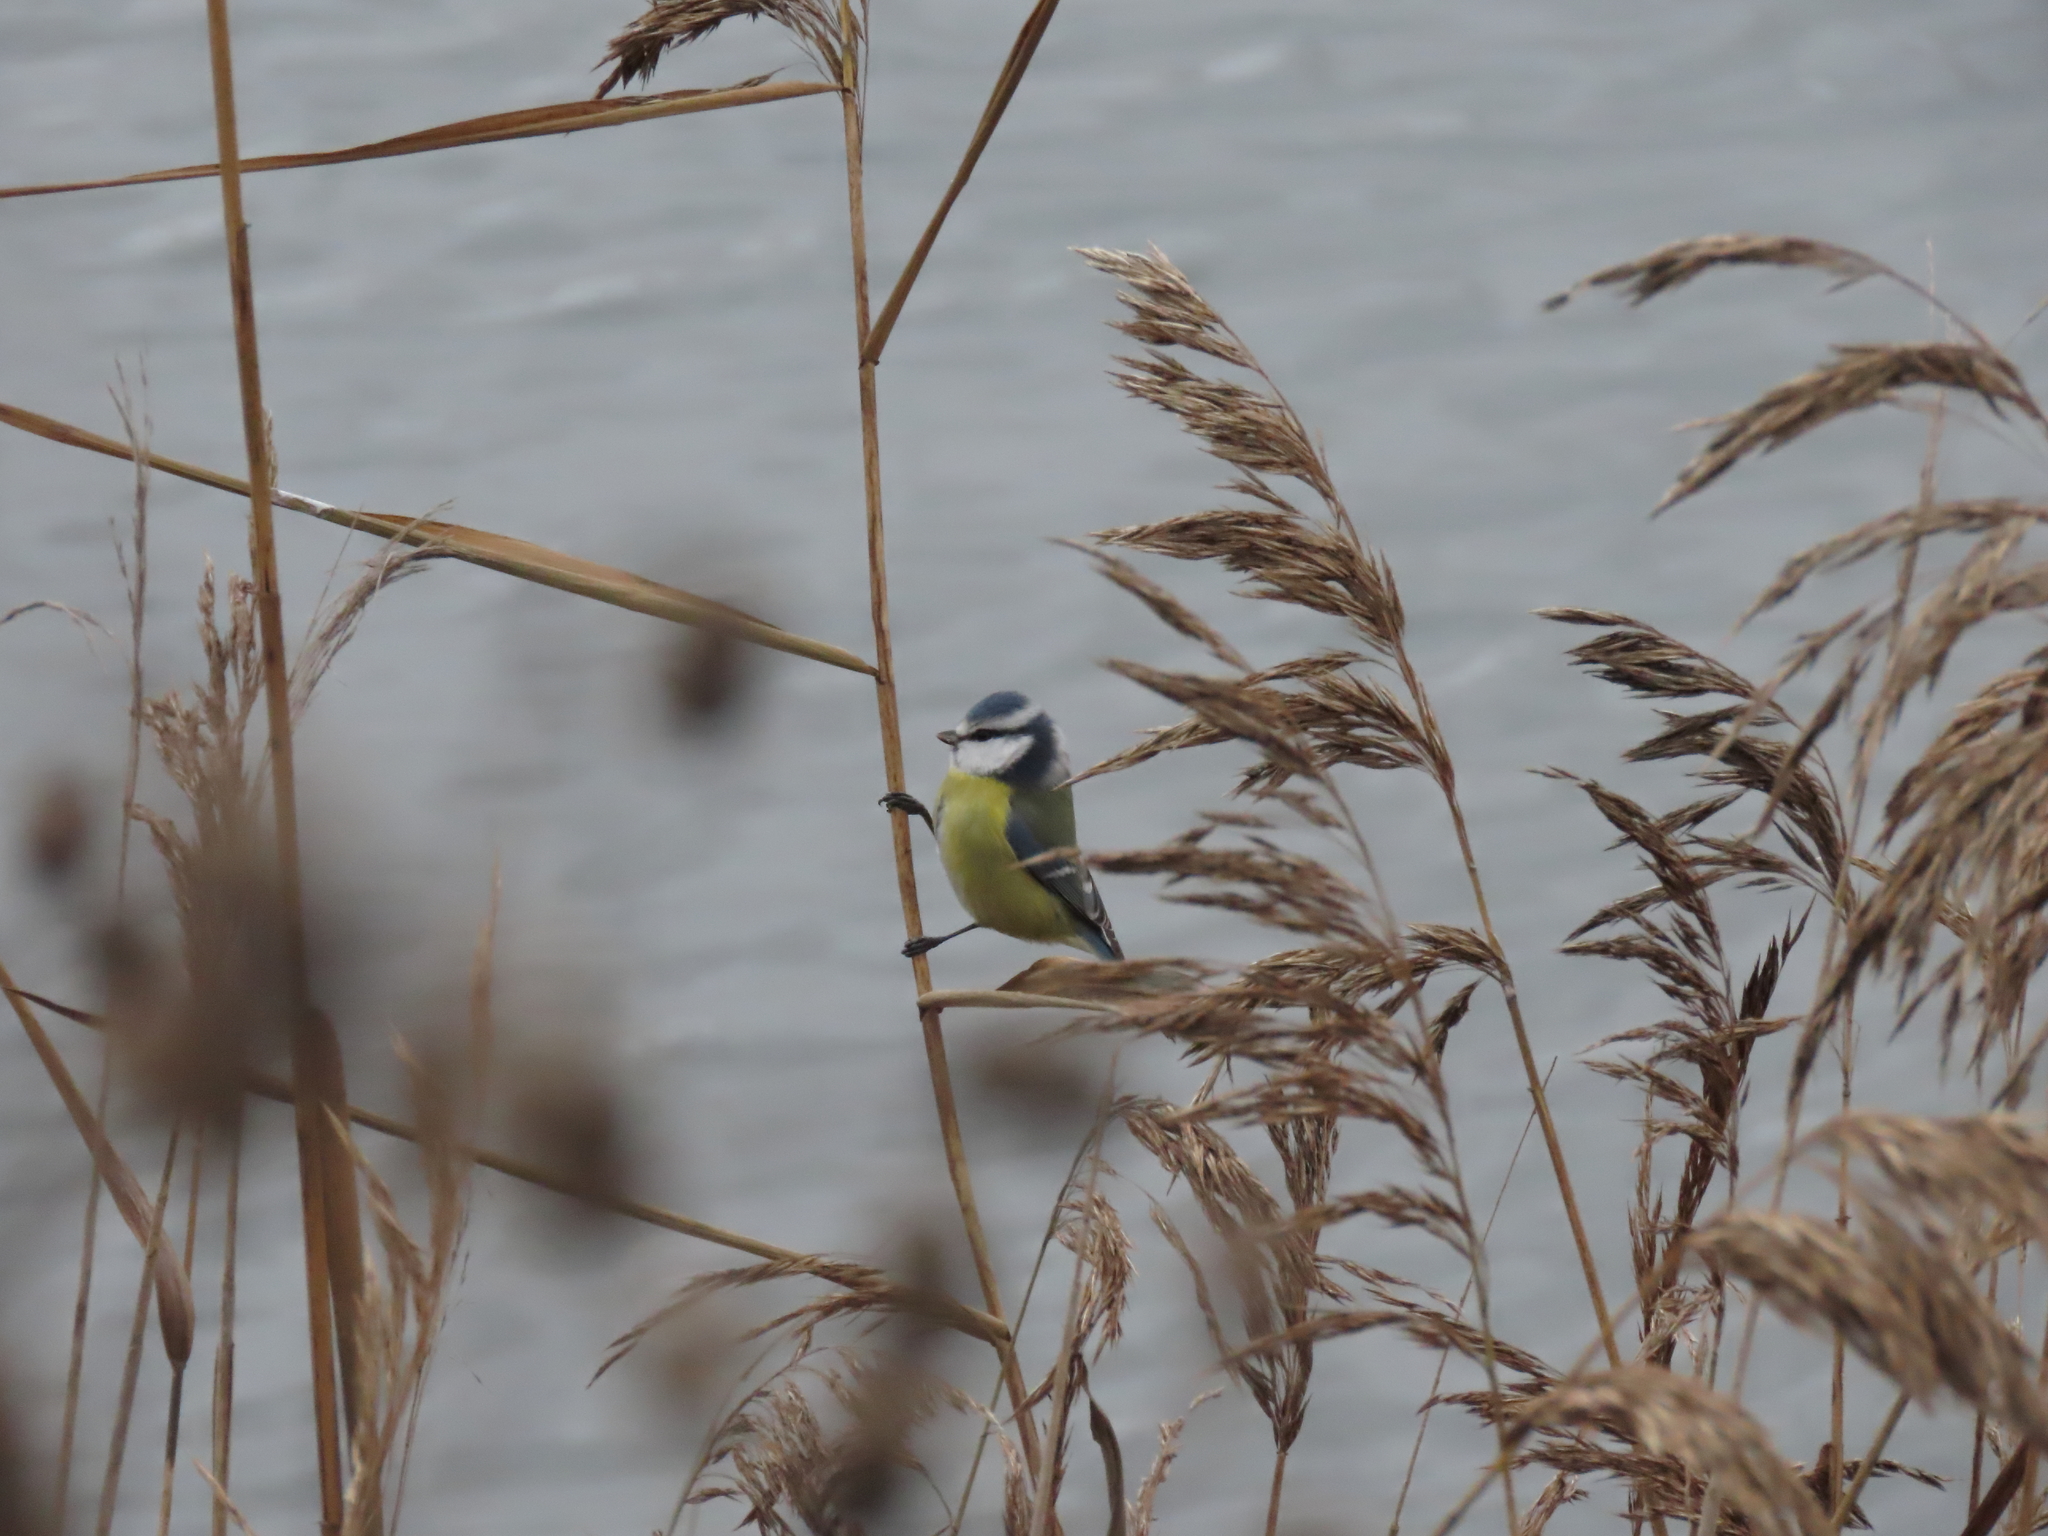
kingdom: Animalia
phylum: Chordata
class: Aves
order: Passeriformes
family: Paridae
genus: Cyanistes
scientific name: Cyanistes caeruleus
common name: Eurasian blue tit
